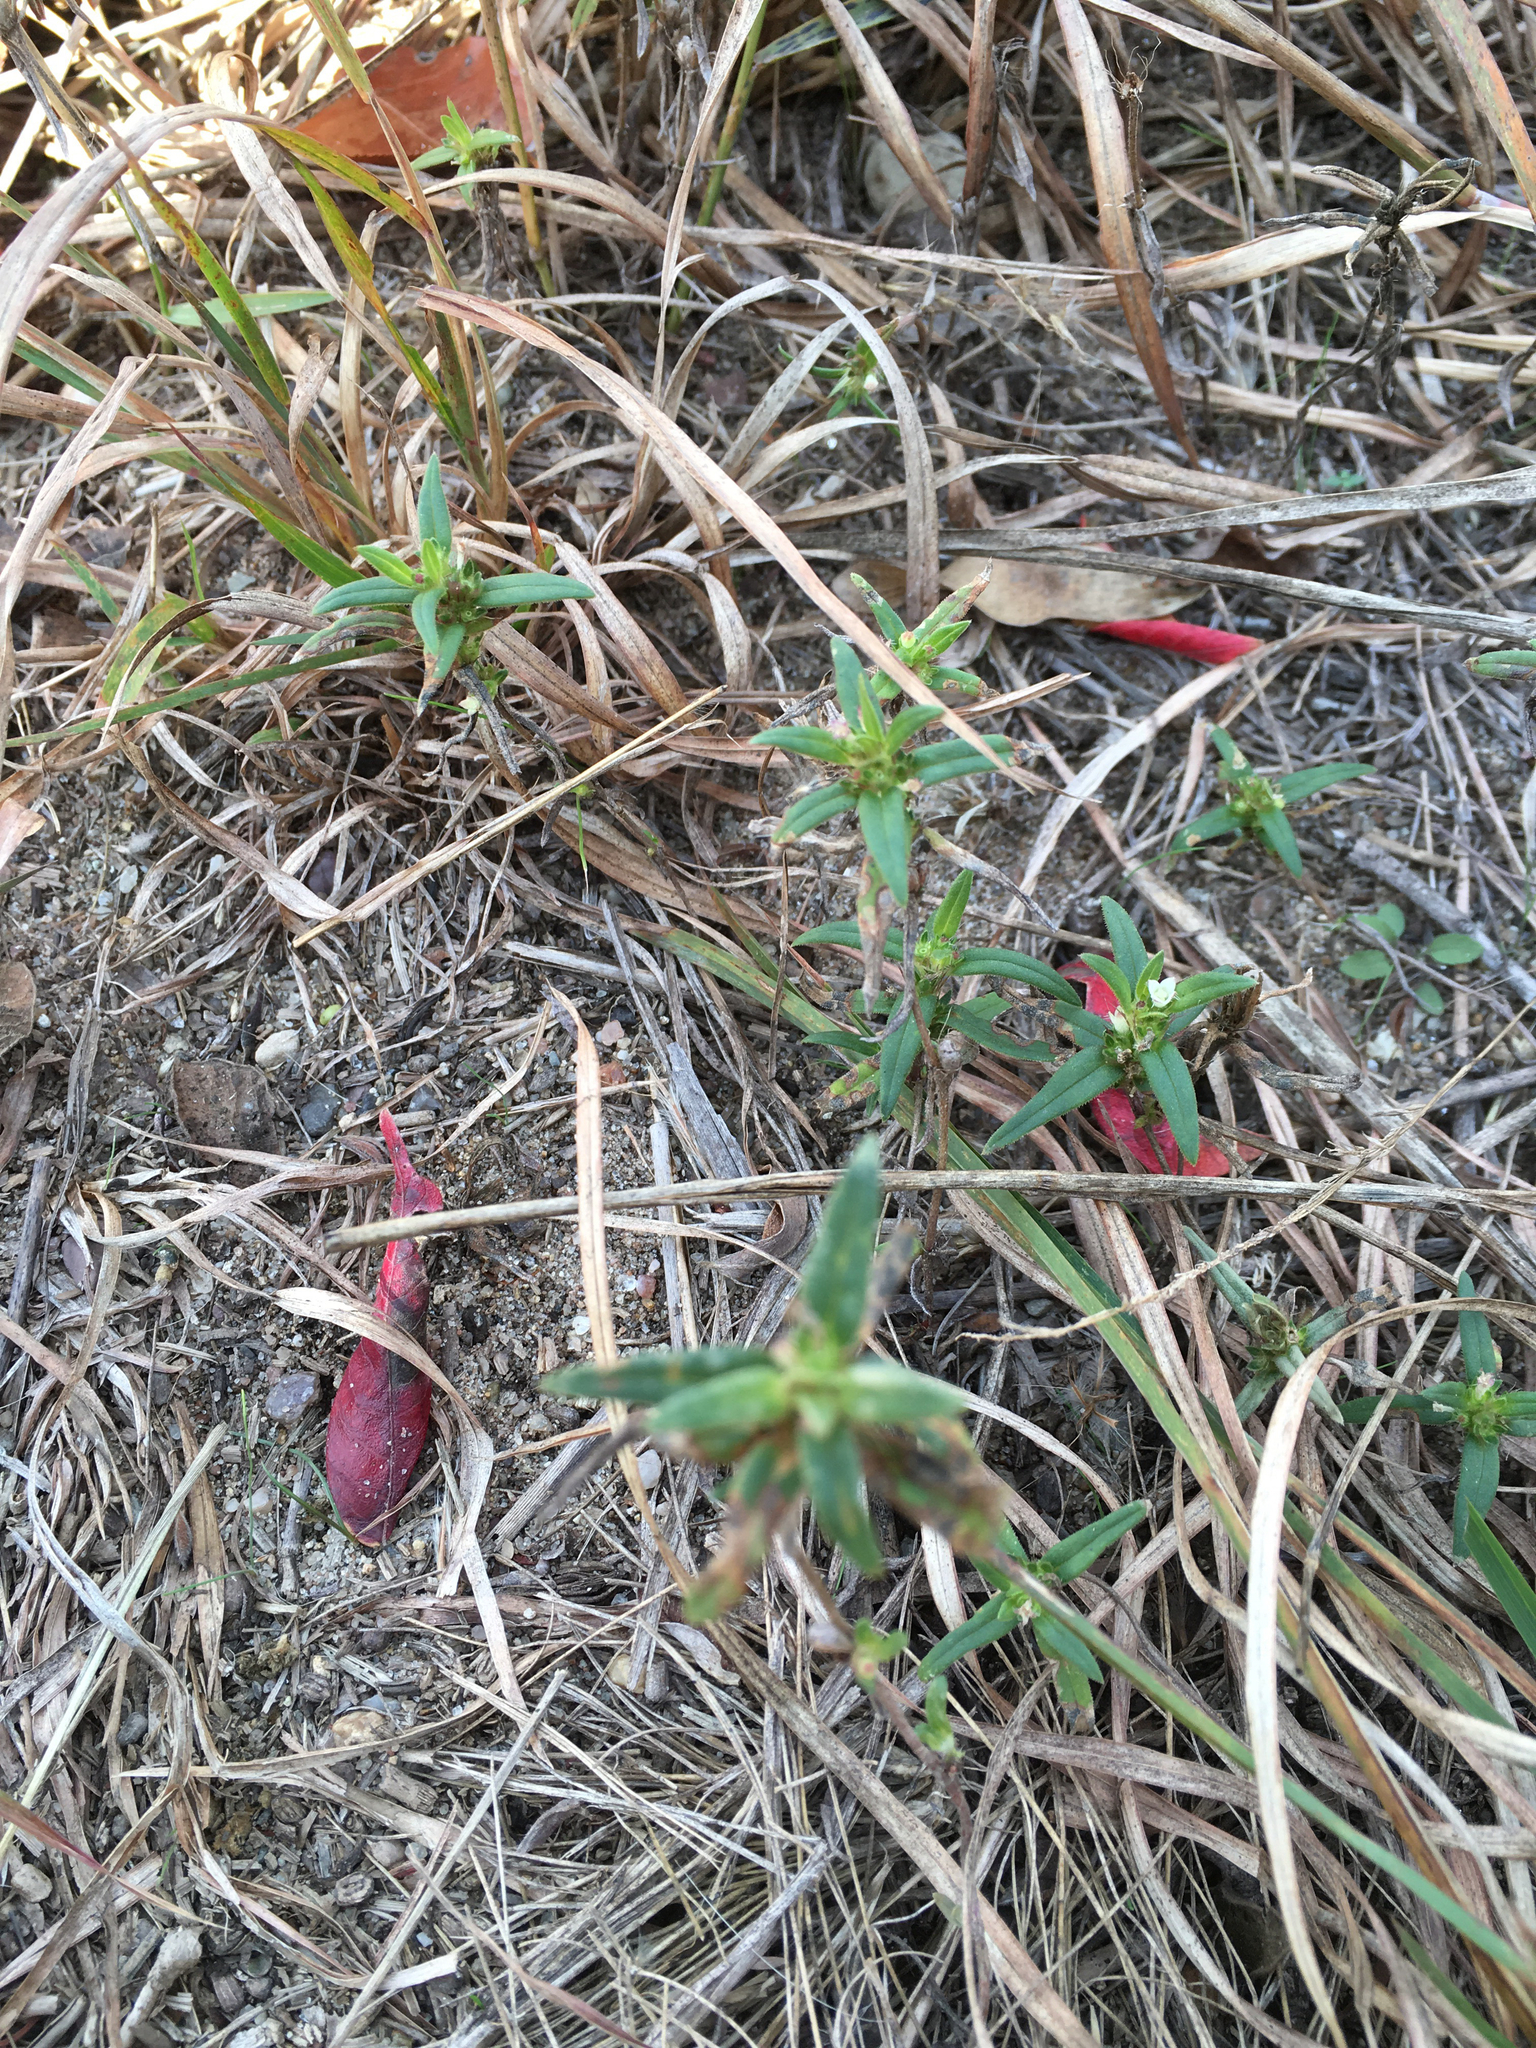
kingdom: Plantae
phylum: Tracheophyta
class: Magnoliopsida
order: Gentianales
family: Rubiaceae
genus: Hexasepalum
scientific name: Hexasepalum teres
